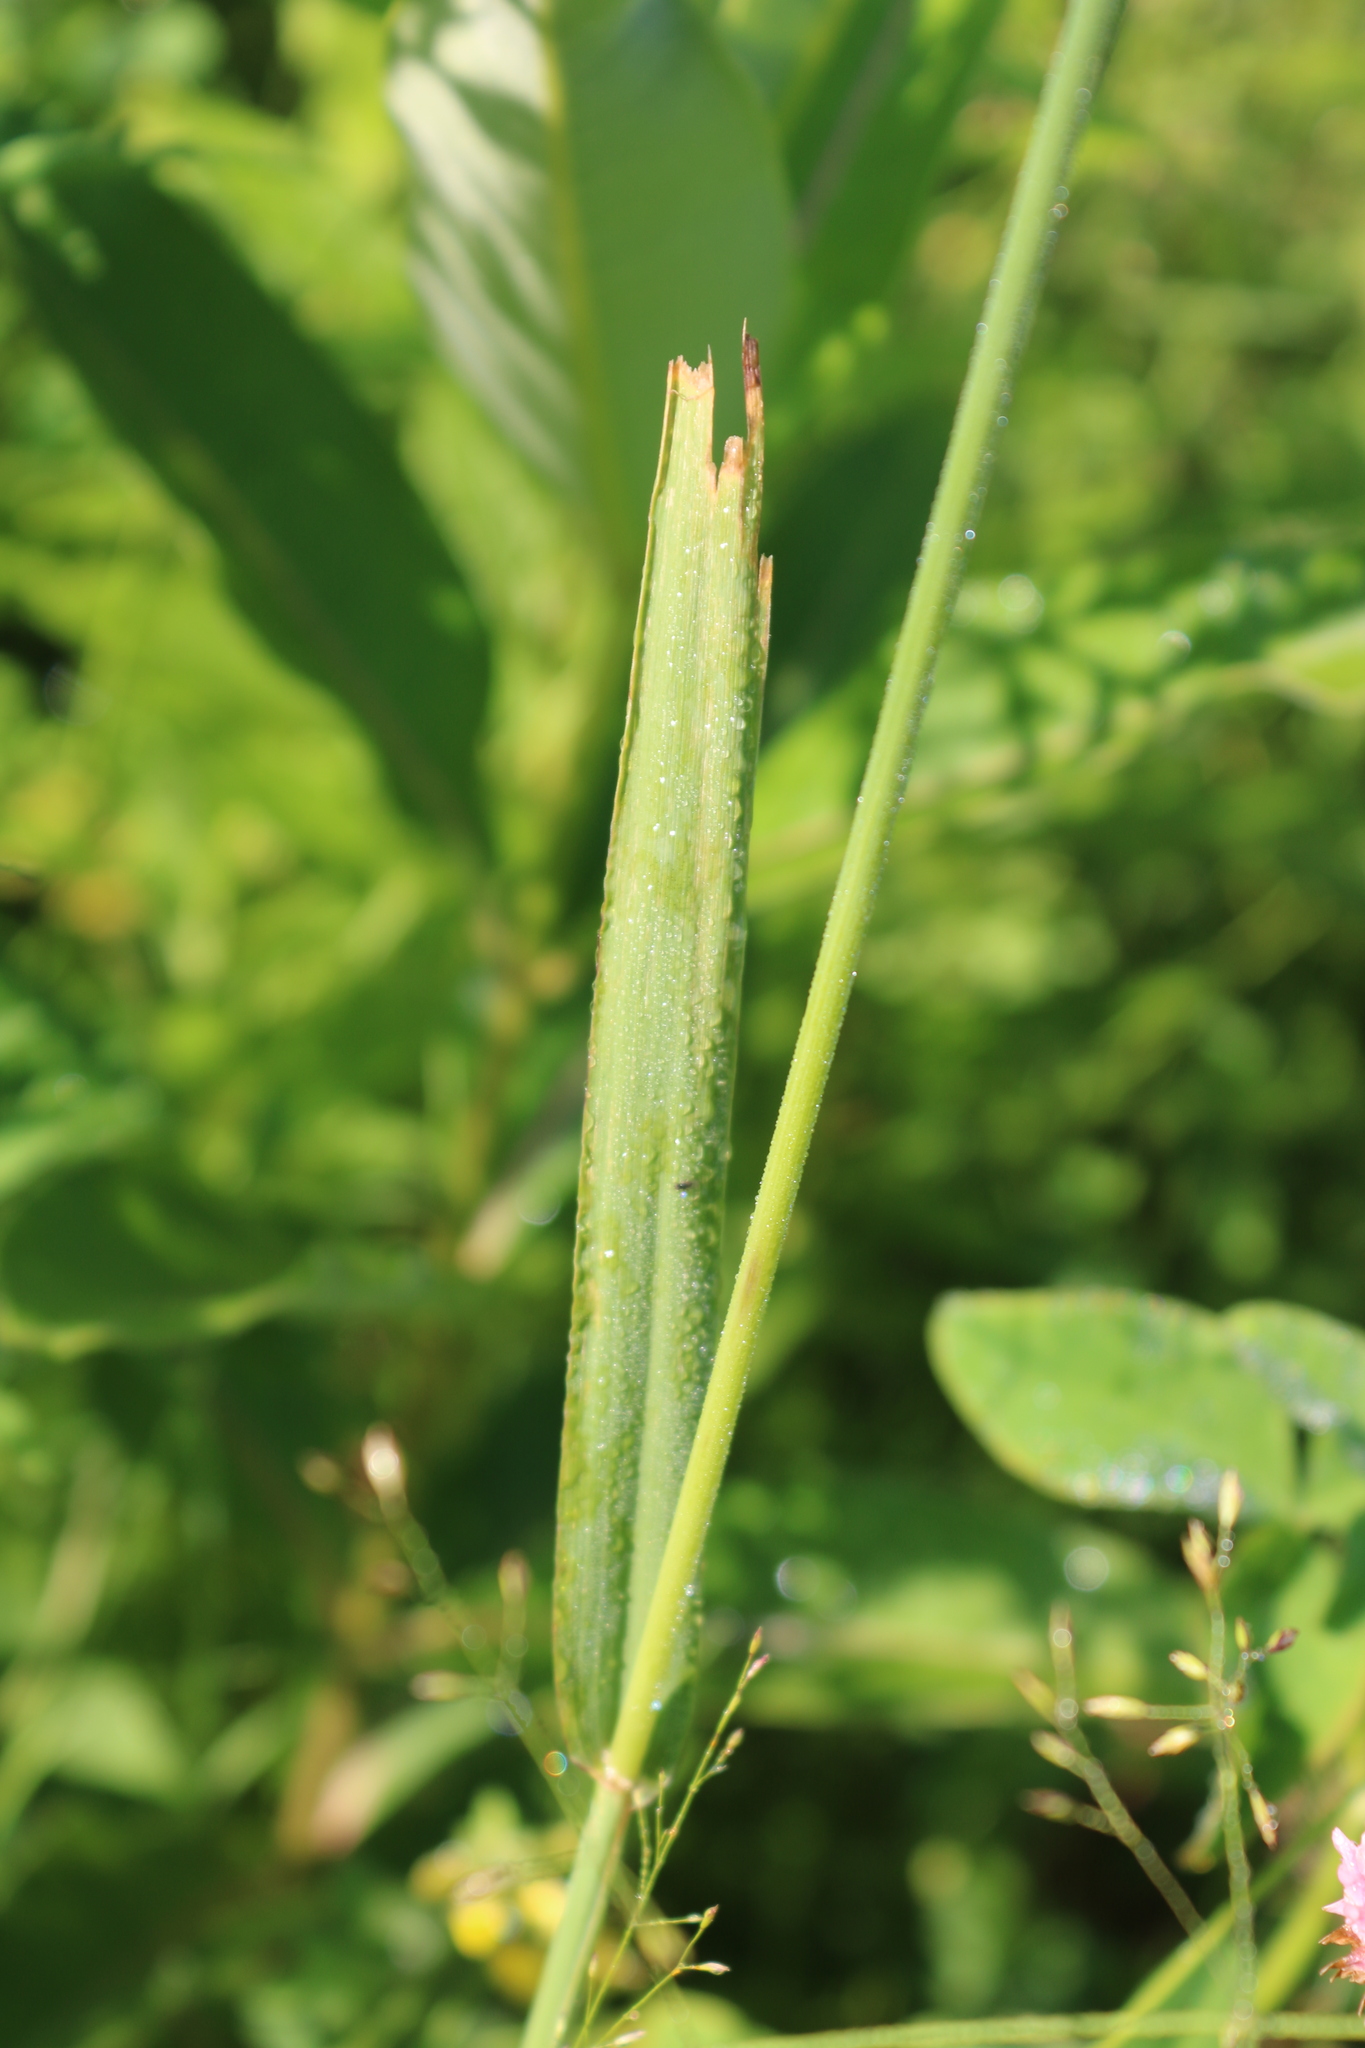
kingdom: Plantae
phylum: Tracheophyta
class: Liliopsida
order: Poales
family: Poaceae
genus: Phleum
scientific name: Phleum pratense
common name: Timothy grass
